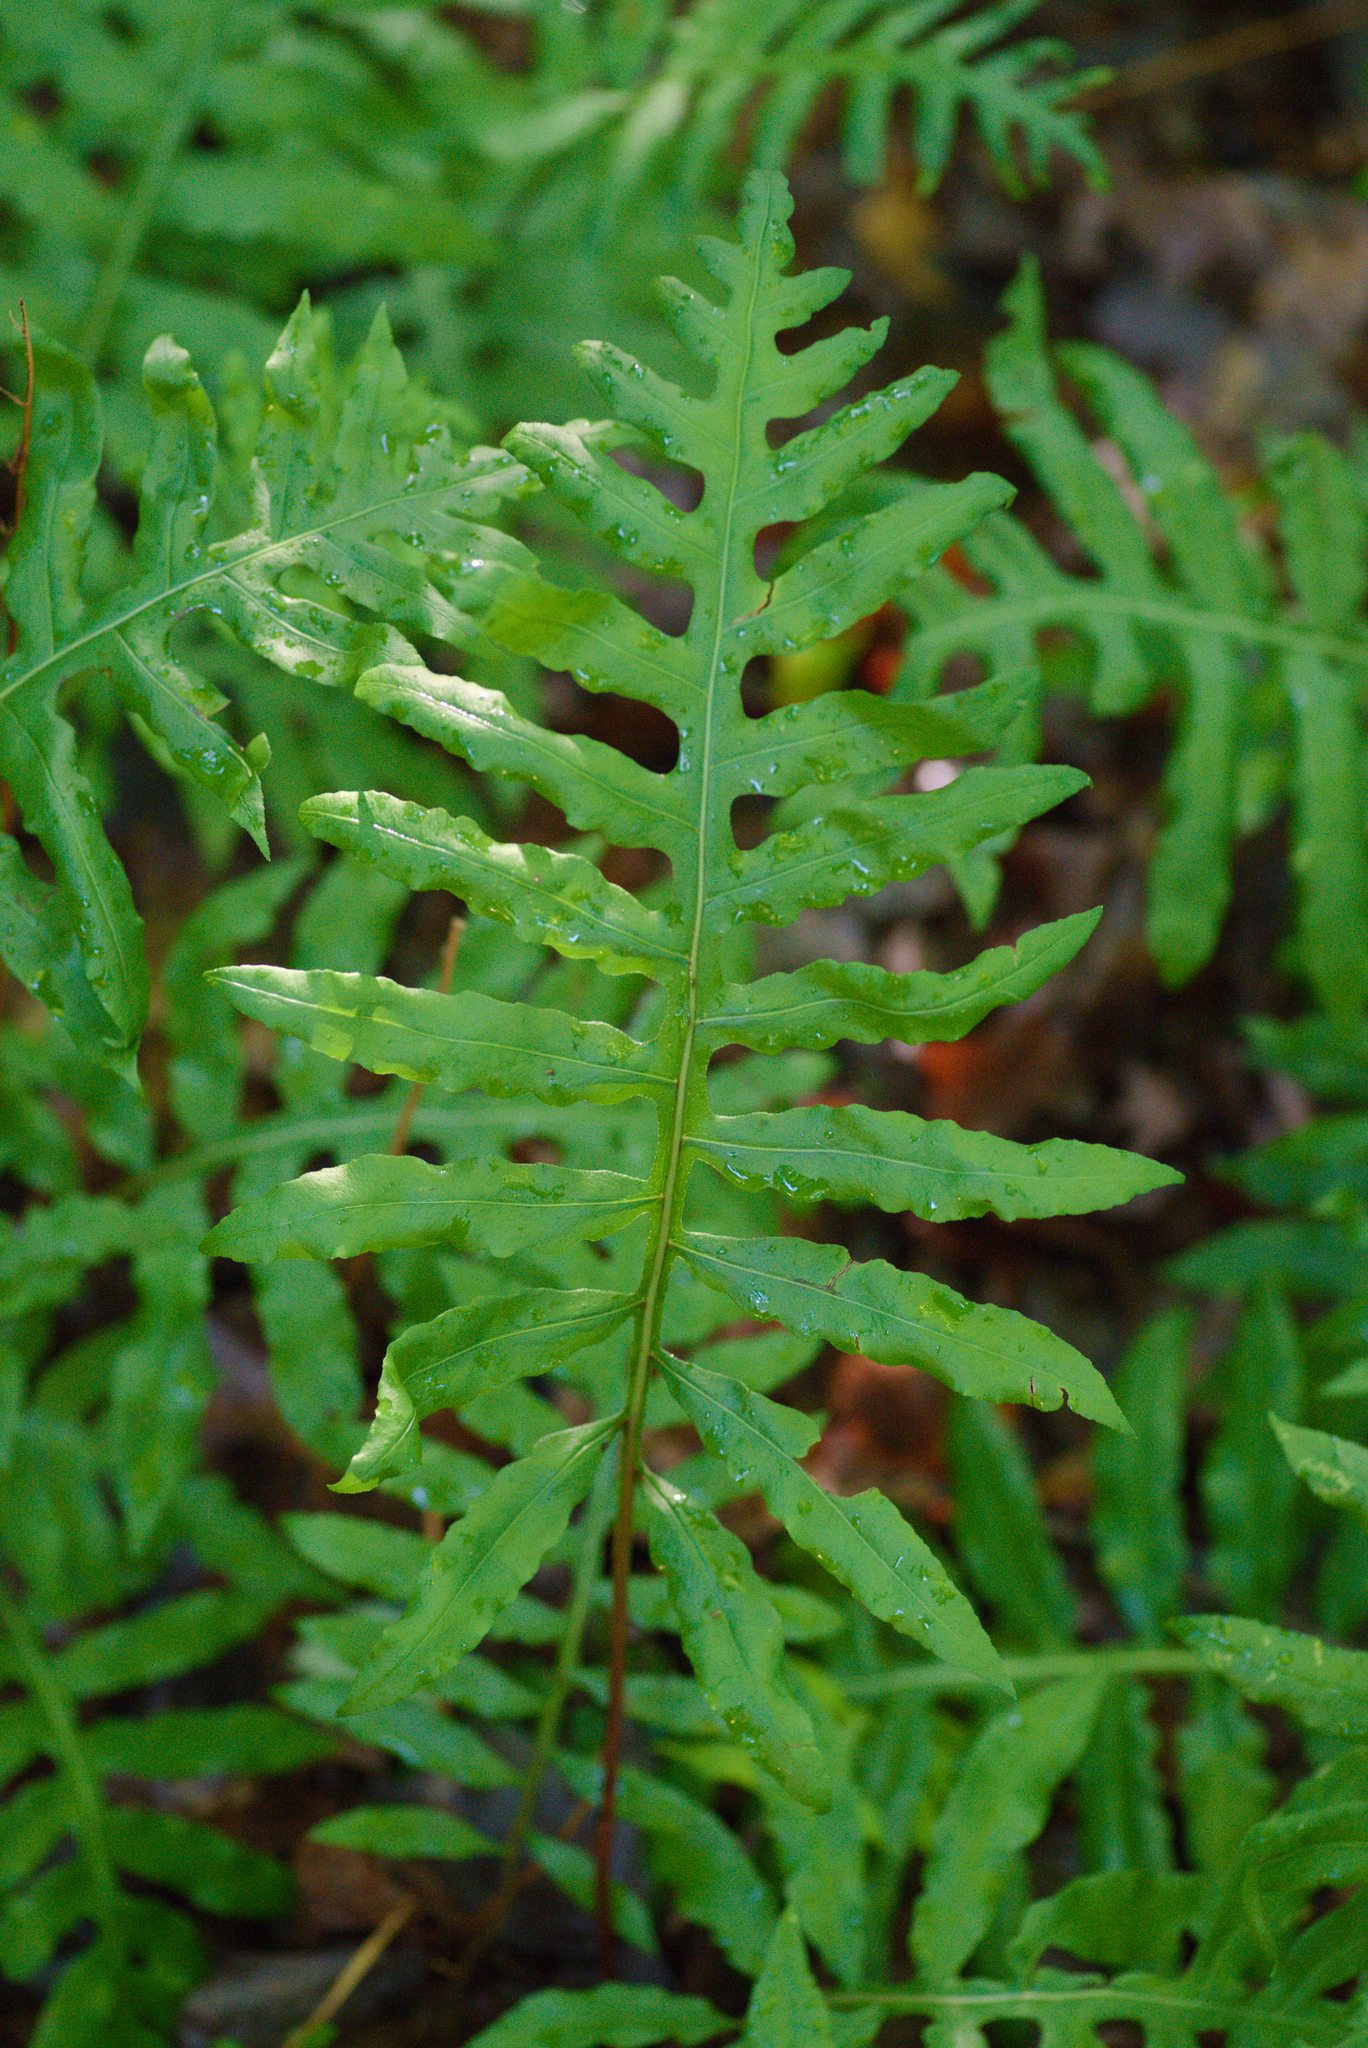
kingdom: Plantae
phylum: Tracheophyta
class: Polypodiopsida
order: Polypodiales
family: Blechnaceae
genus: Lorinseria
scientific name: Lorinseria areolata
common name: Dwarf chain fern
